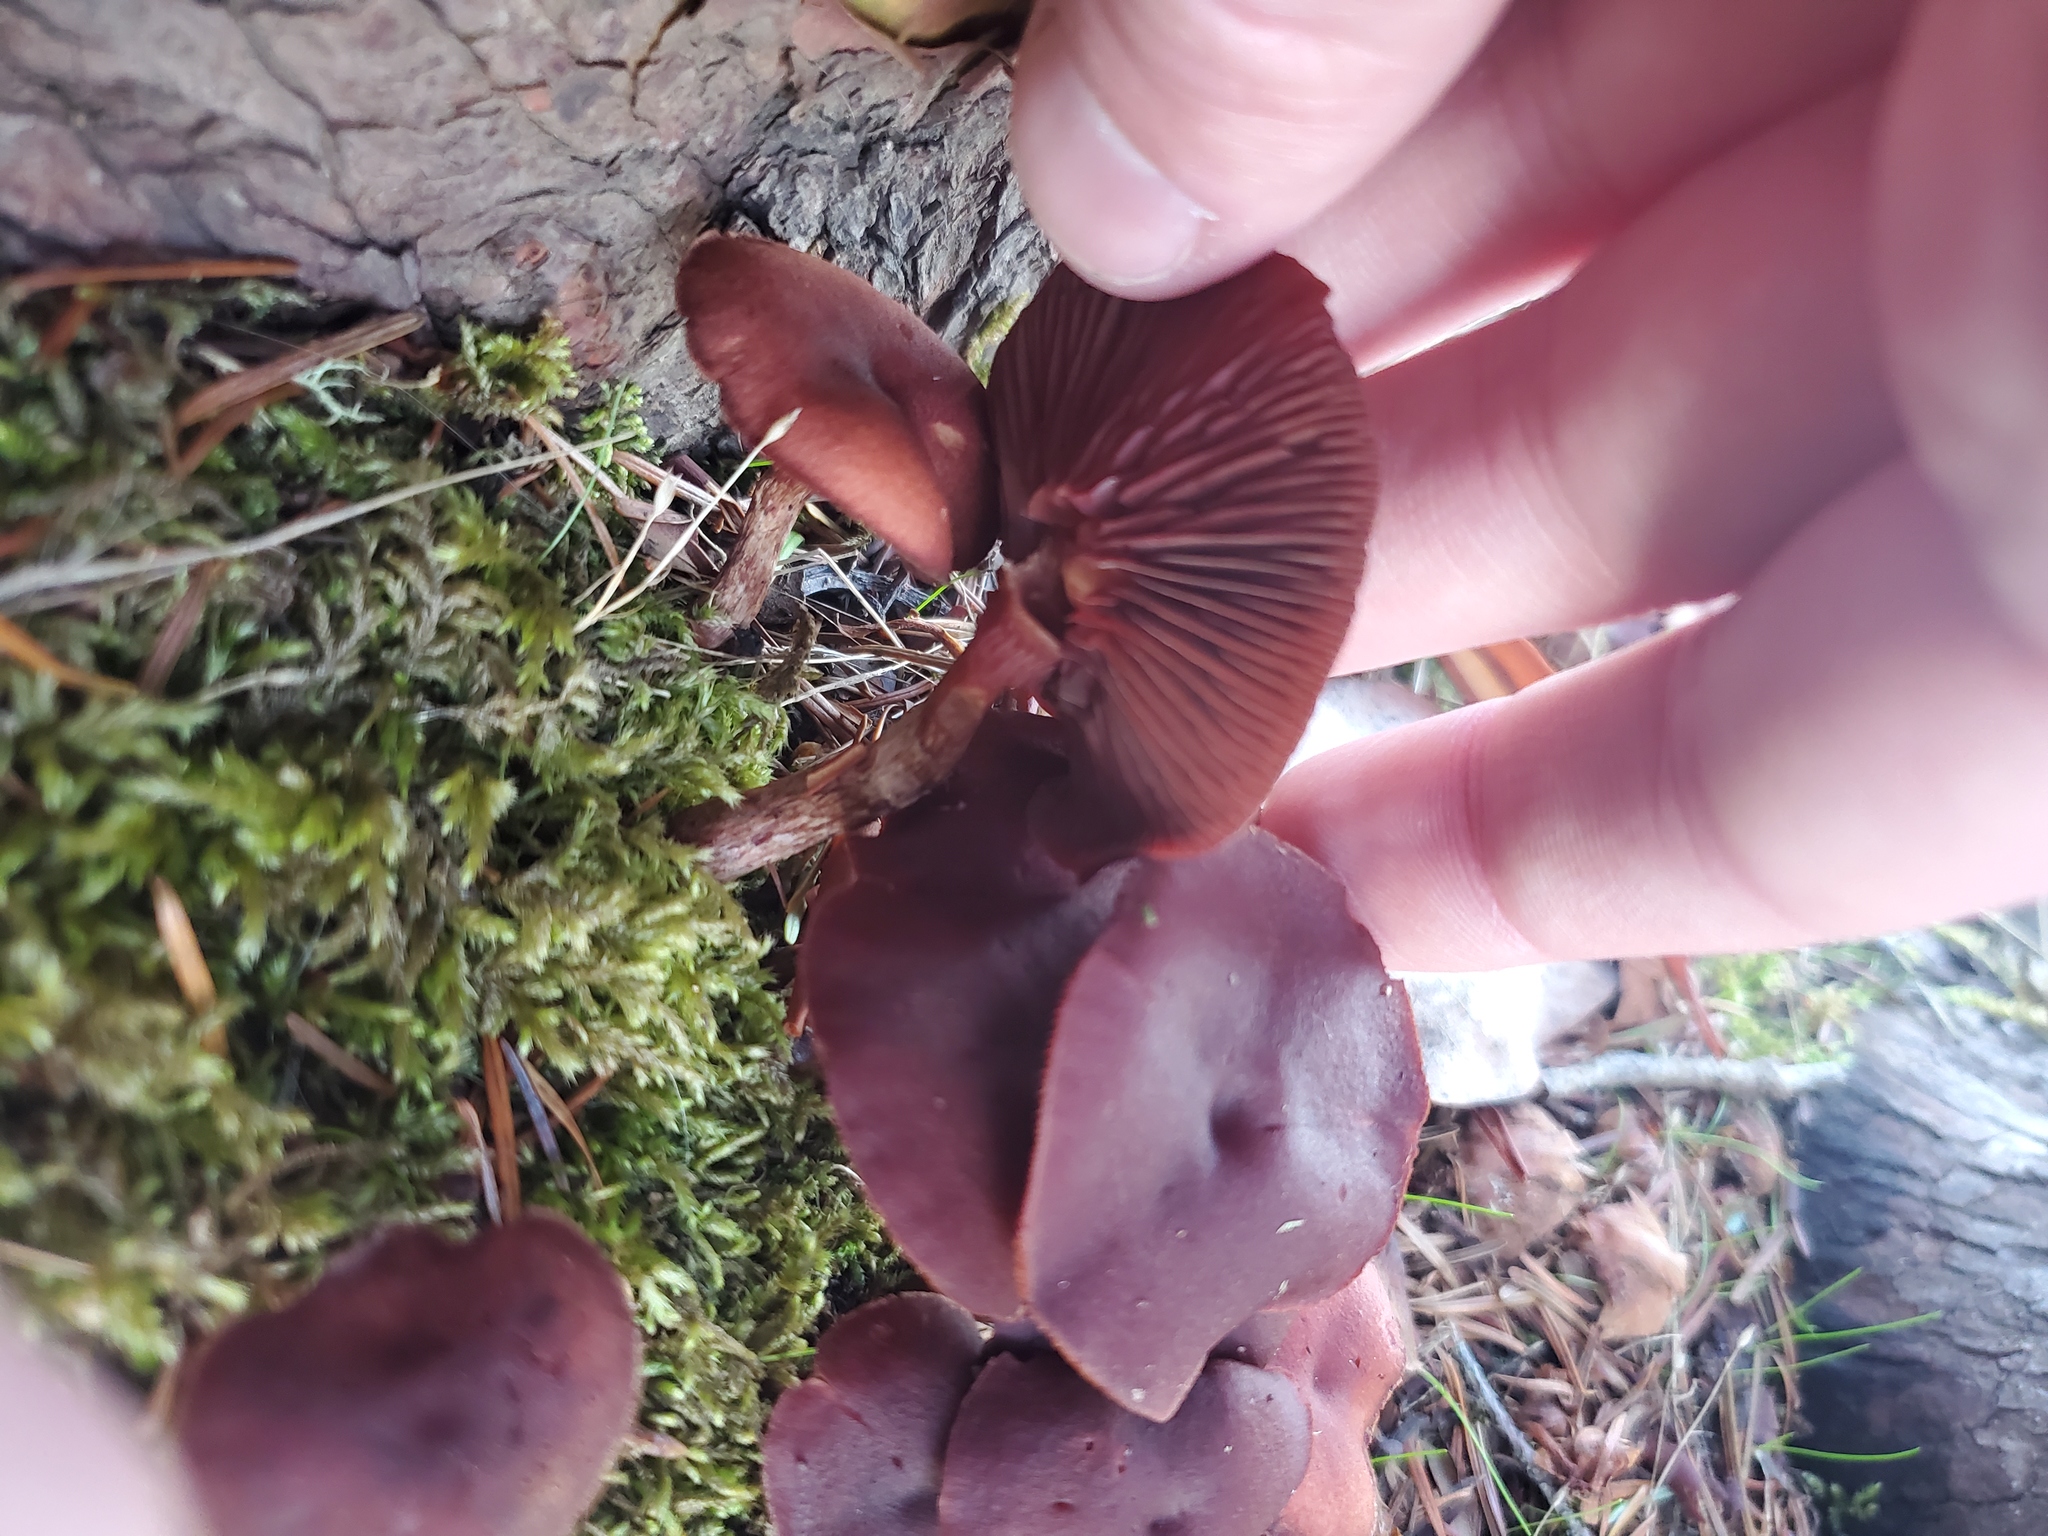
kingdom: Fungi
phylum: Basidiomycota
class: Agaricomycetes
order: Agaricales
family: Tubariaceae
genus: Tubaria
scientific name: Tubaria punicea
